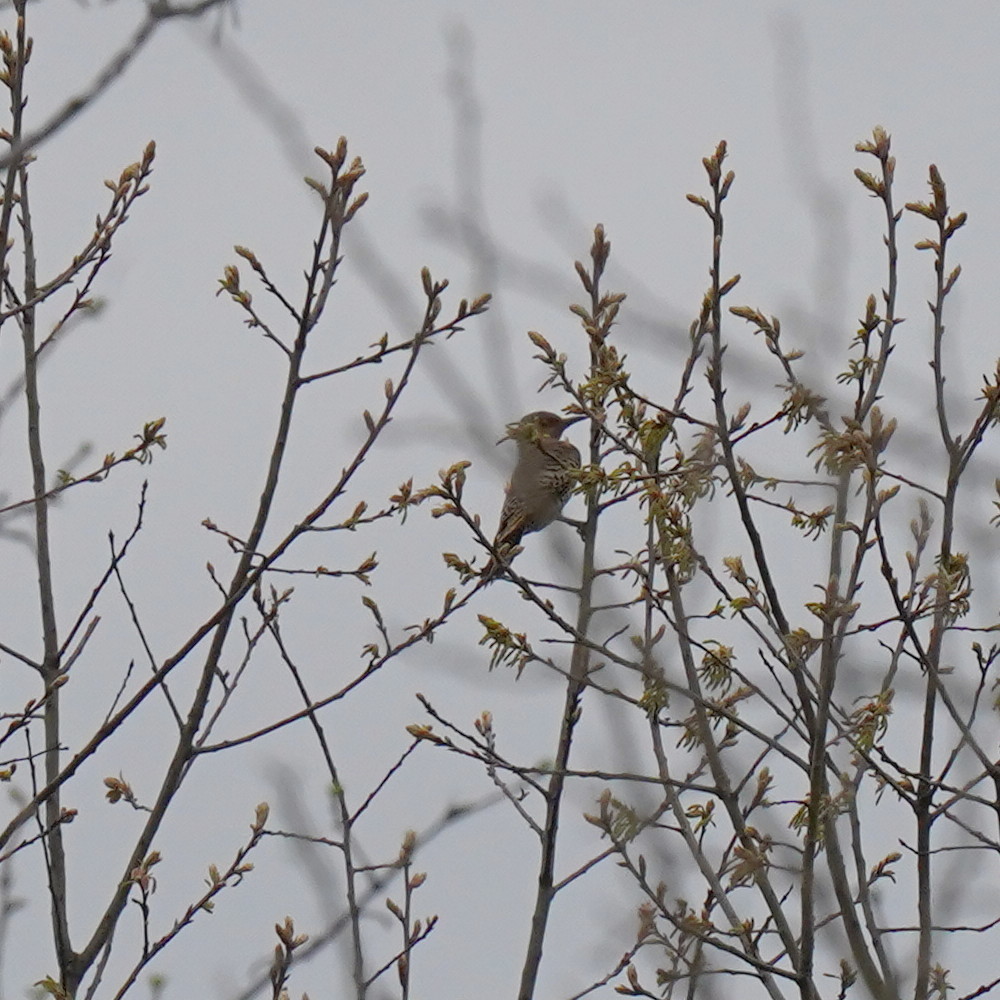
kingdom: Animalia
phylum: Chordata
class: Aves
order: Piciformes
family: Picidae
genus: Colaptes
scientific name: Colaptes auratus
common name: Northern flicker
